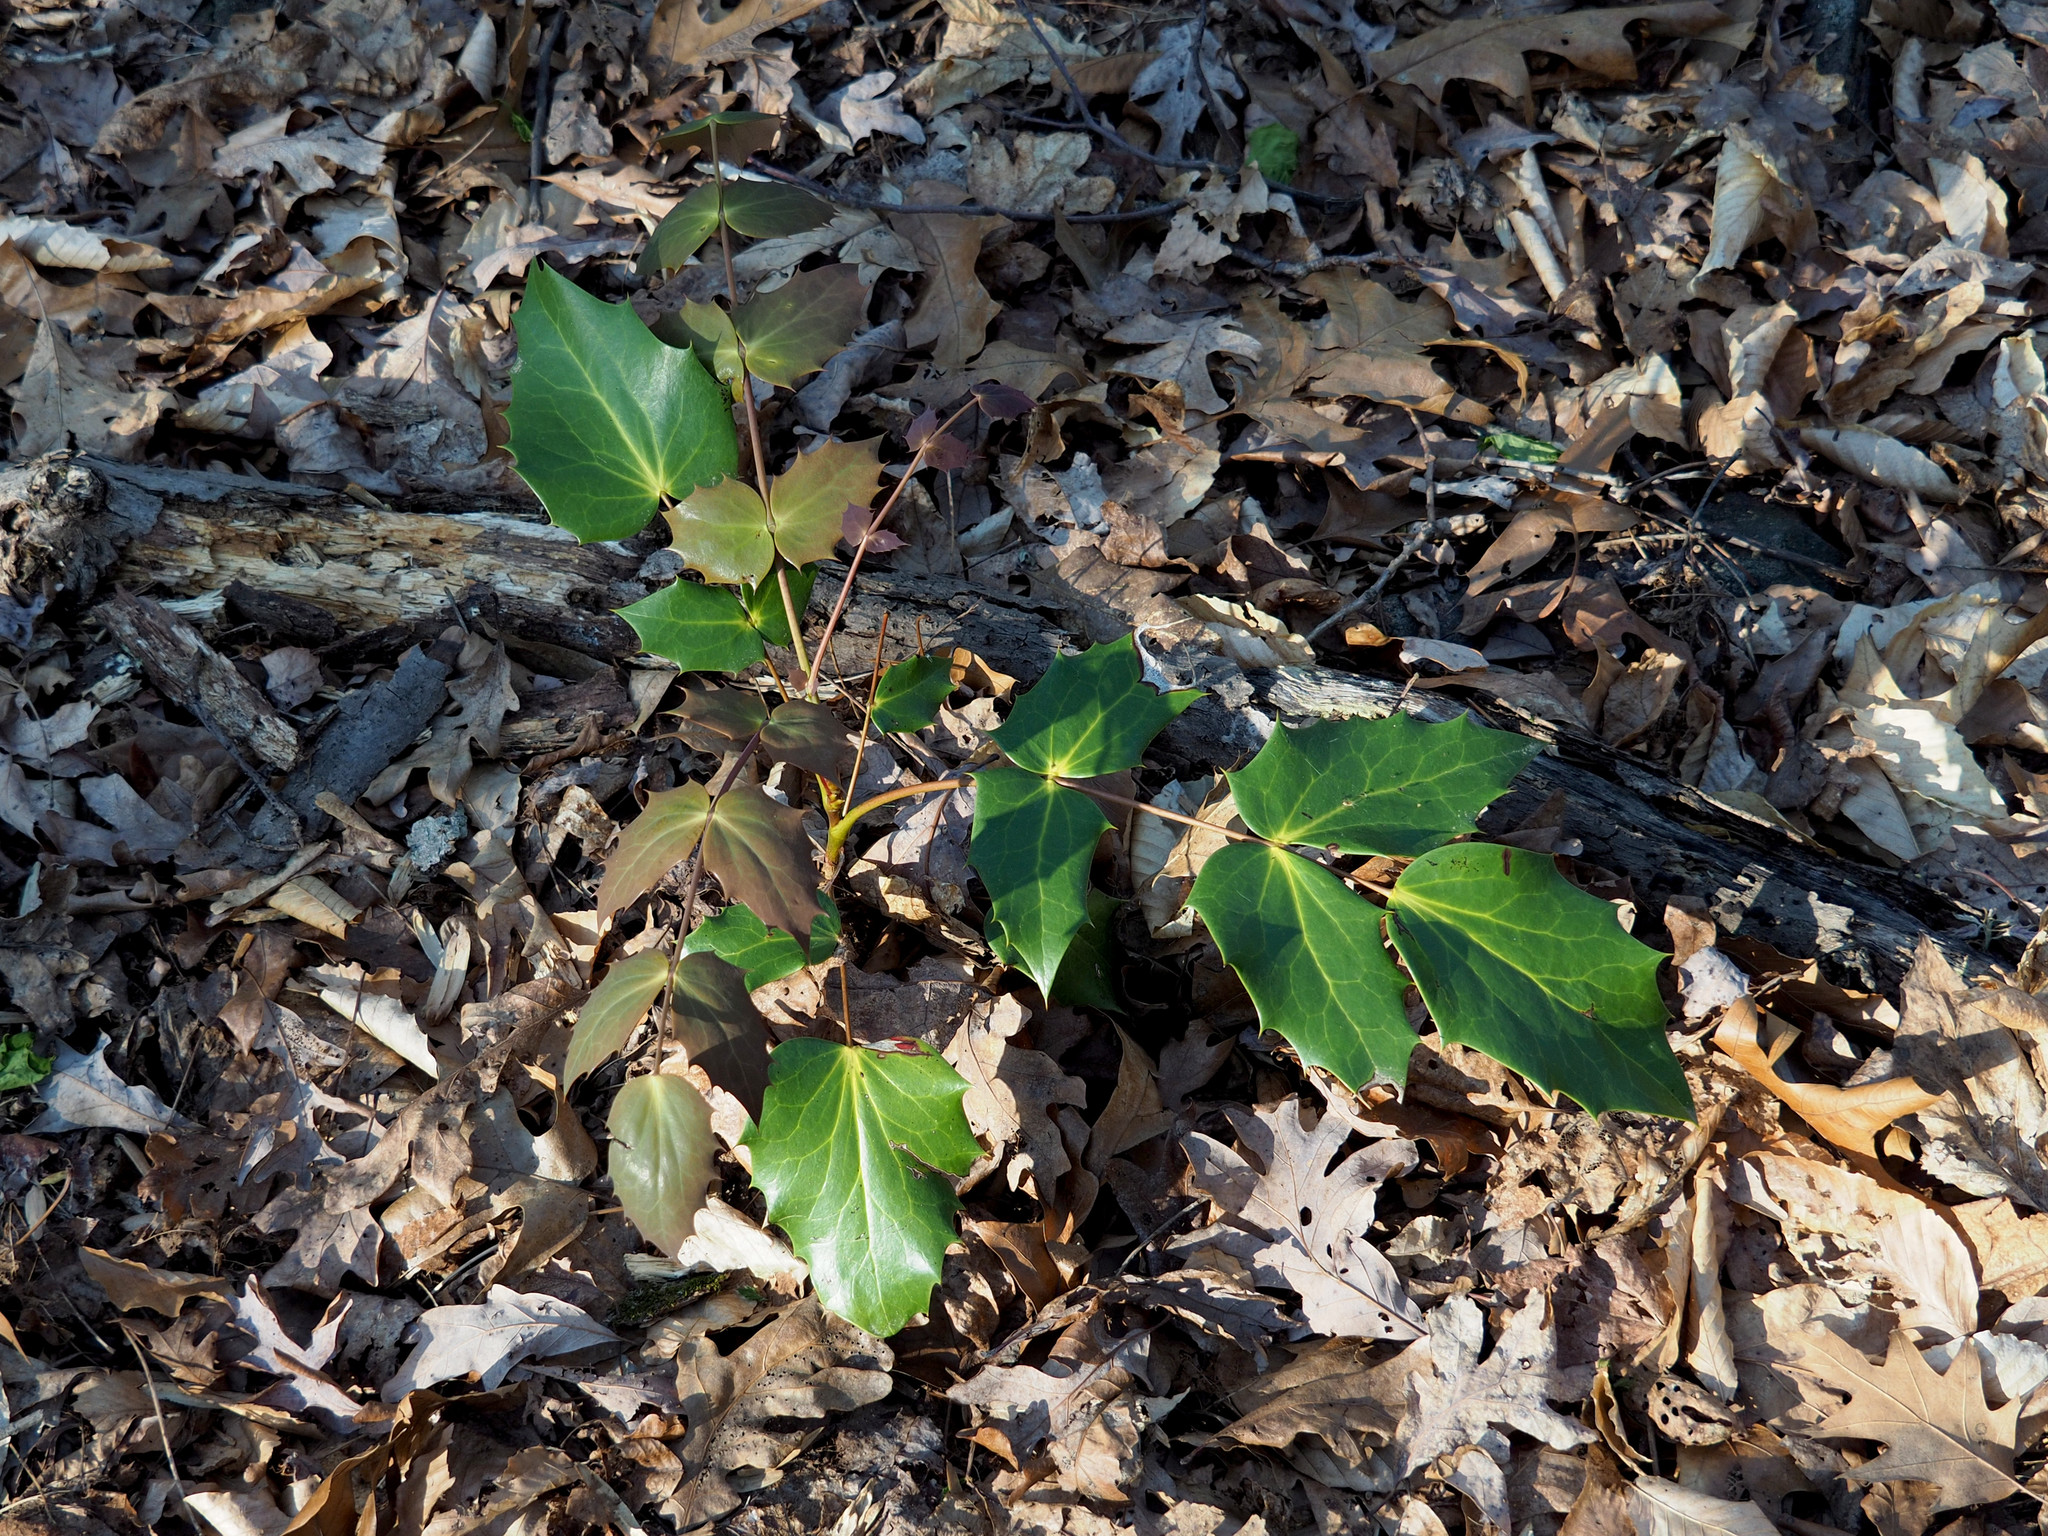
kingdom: Plantae
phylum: Tracheophyta
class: Magnoliopsida
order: Ranunculales
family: Berberidaceae
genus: Mahonia
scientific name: Mahonia bealei
